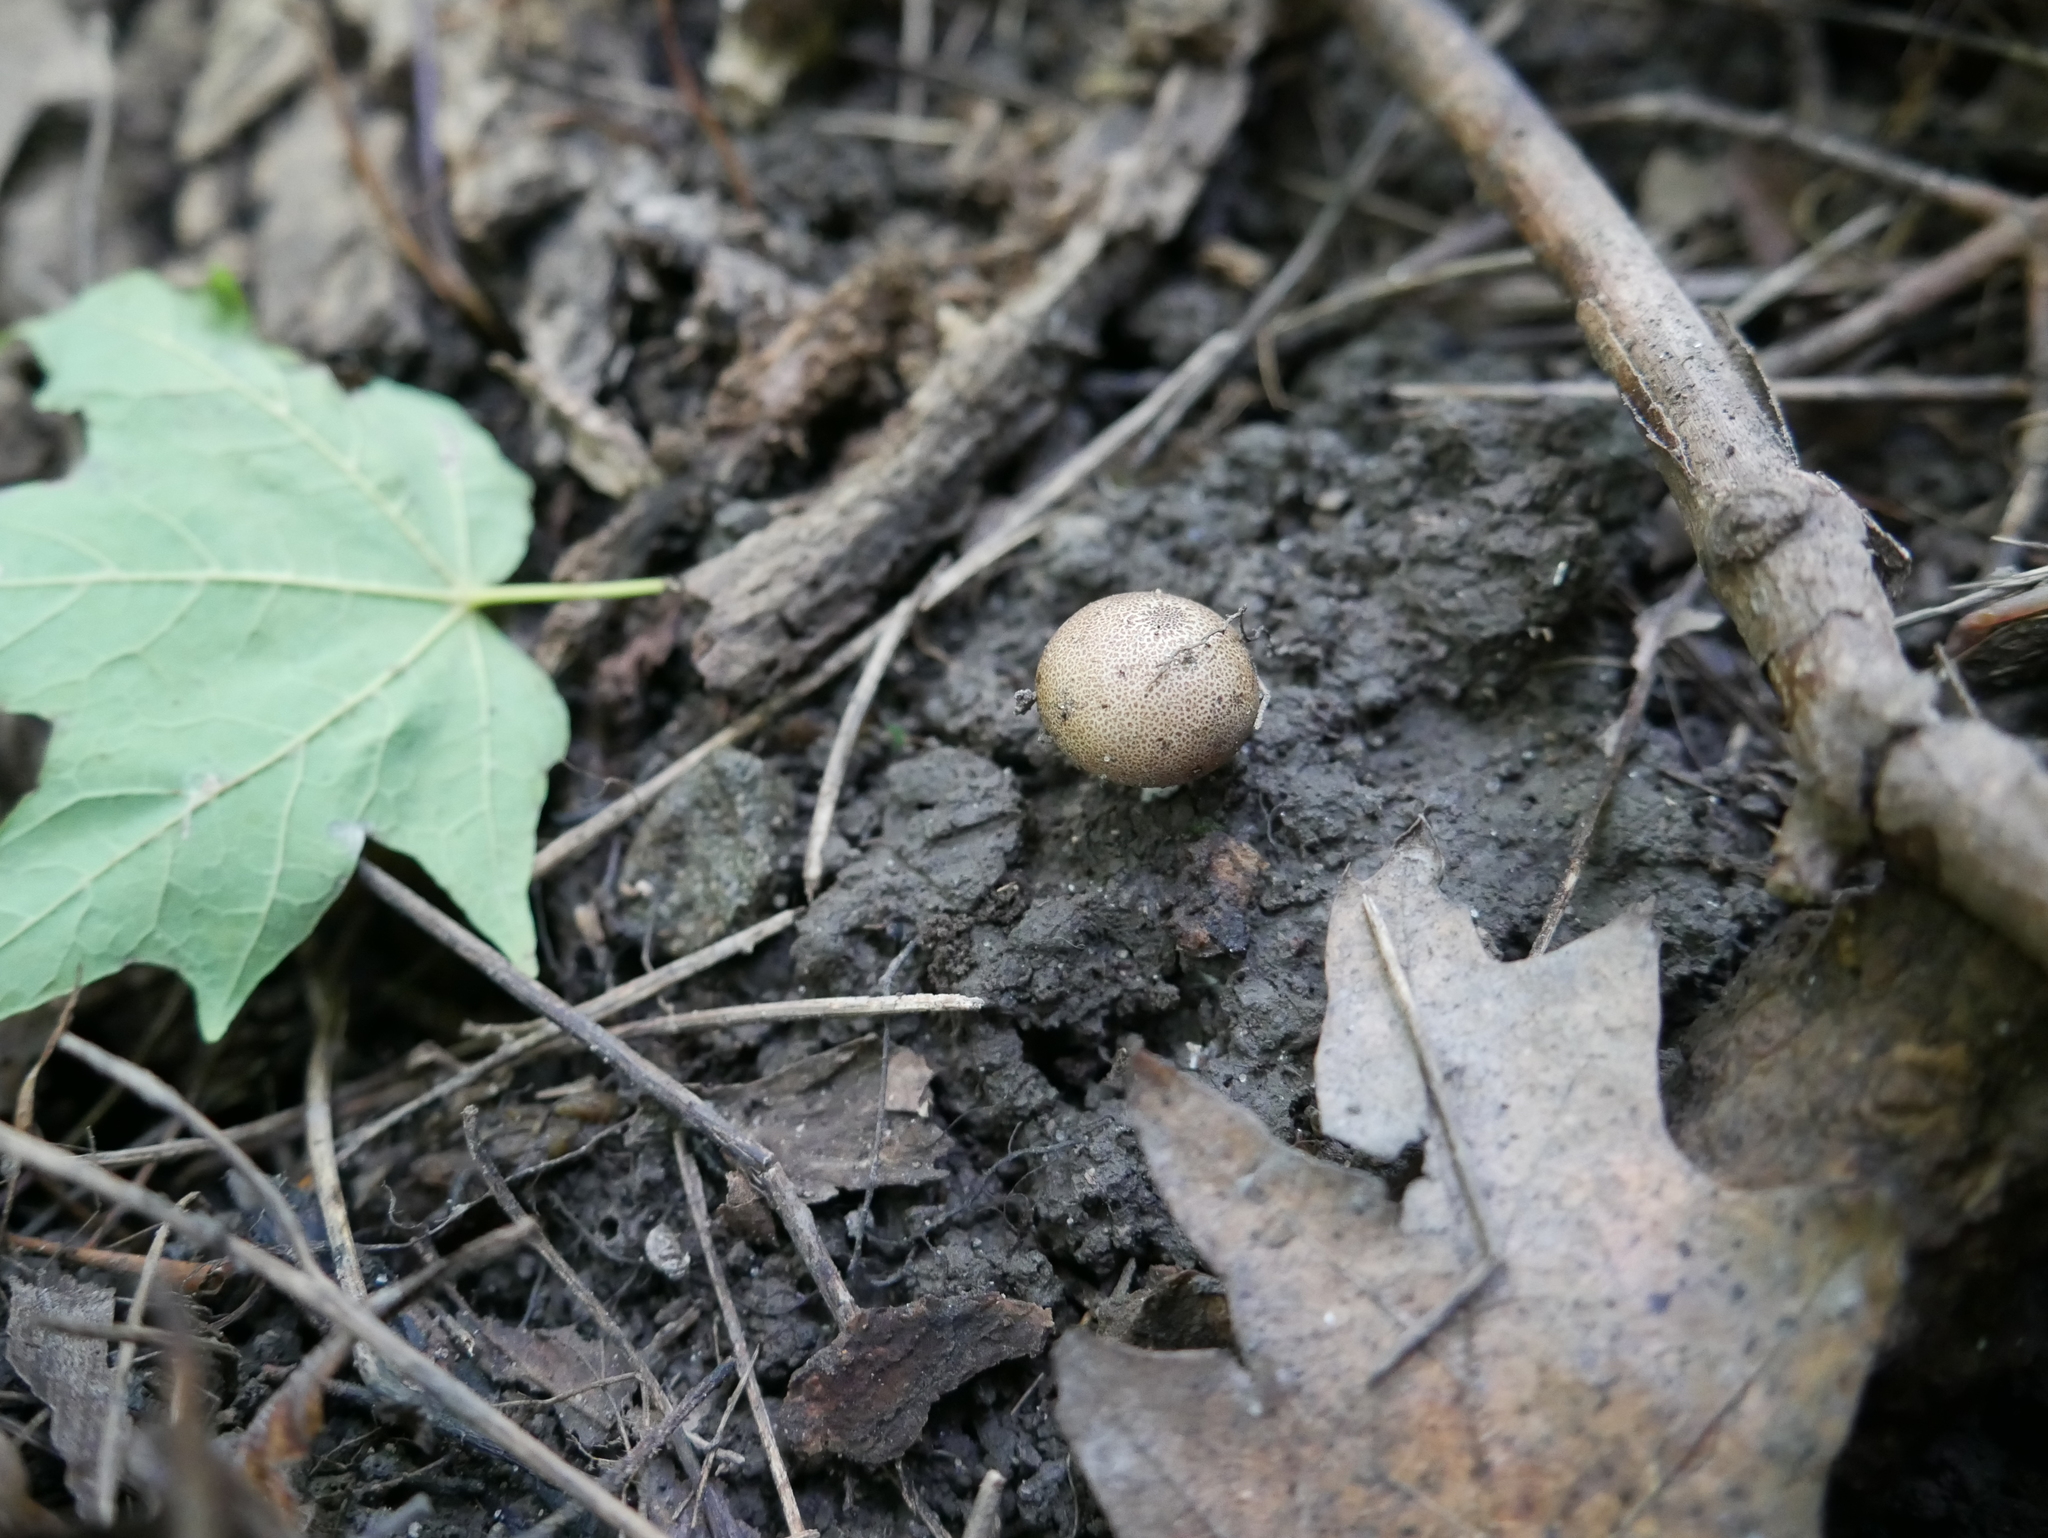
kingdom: Fungi
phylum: Basidiomycota
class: Agaricomycetes
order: Boletales
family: Sclerodermataceae
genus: Scleroderma
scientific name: Scleroderma areolatum
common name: Leopard earthball
